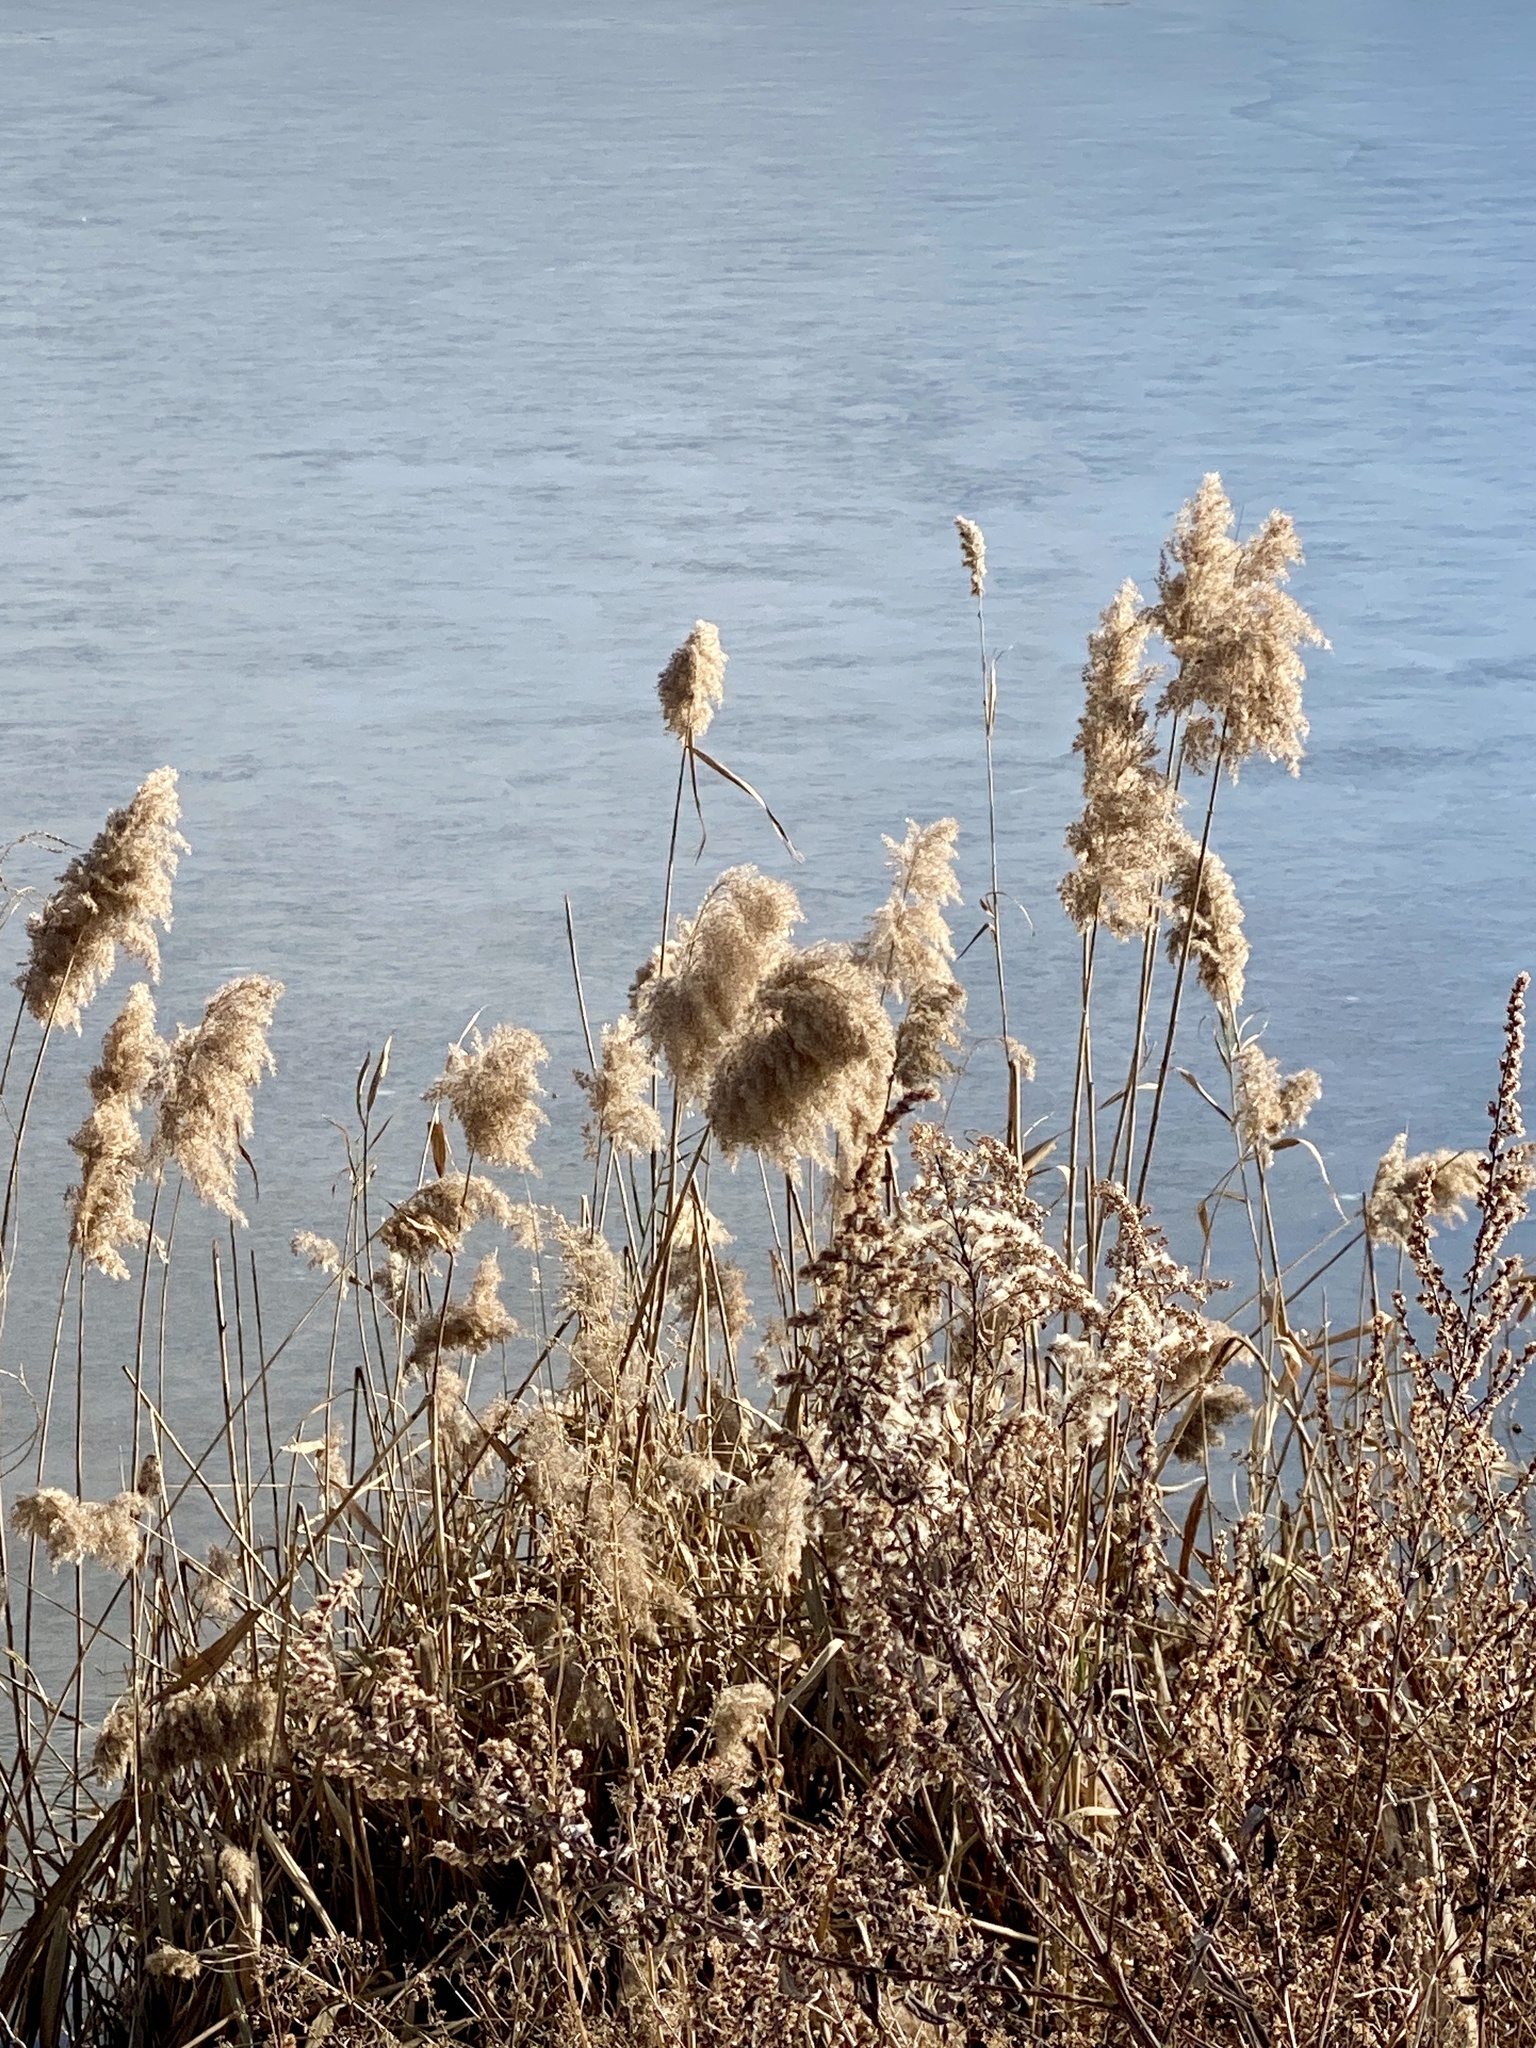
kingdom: Plantae
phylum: Tracheophyta
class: Liliopsida
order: Poales
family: Poaceae
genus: Phragmites
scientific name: Phragmites australis
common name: Common reed
